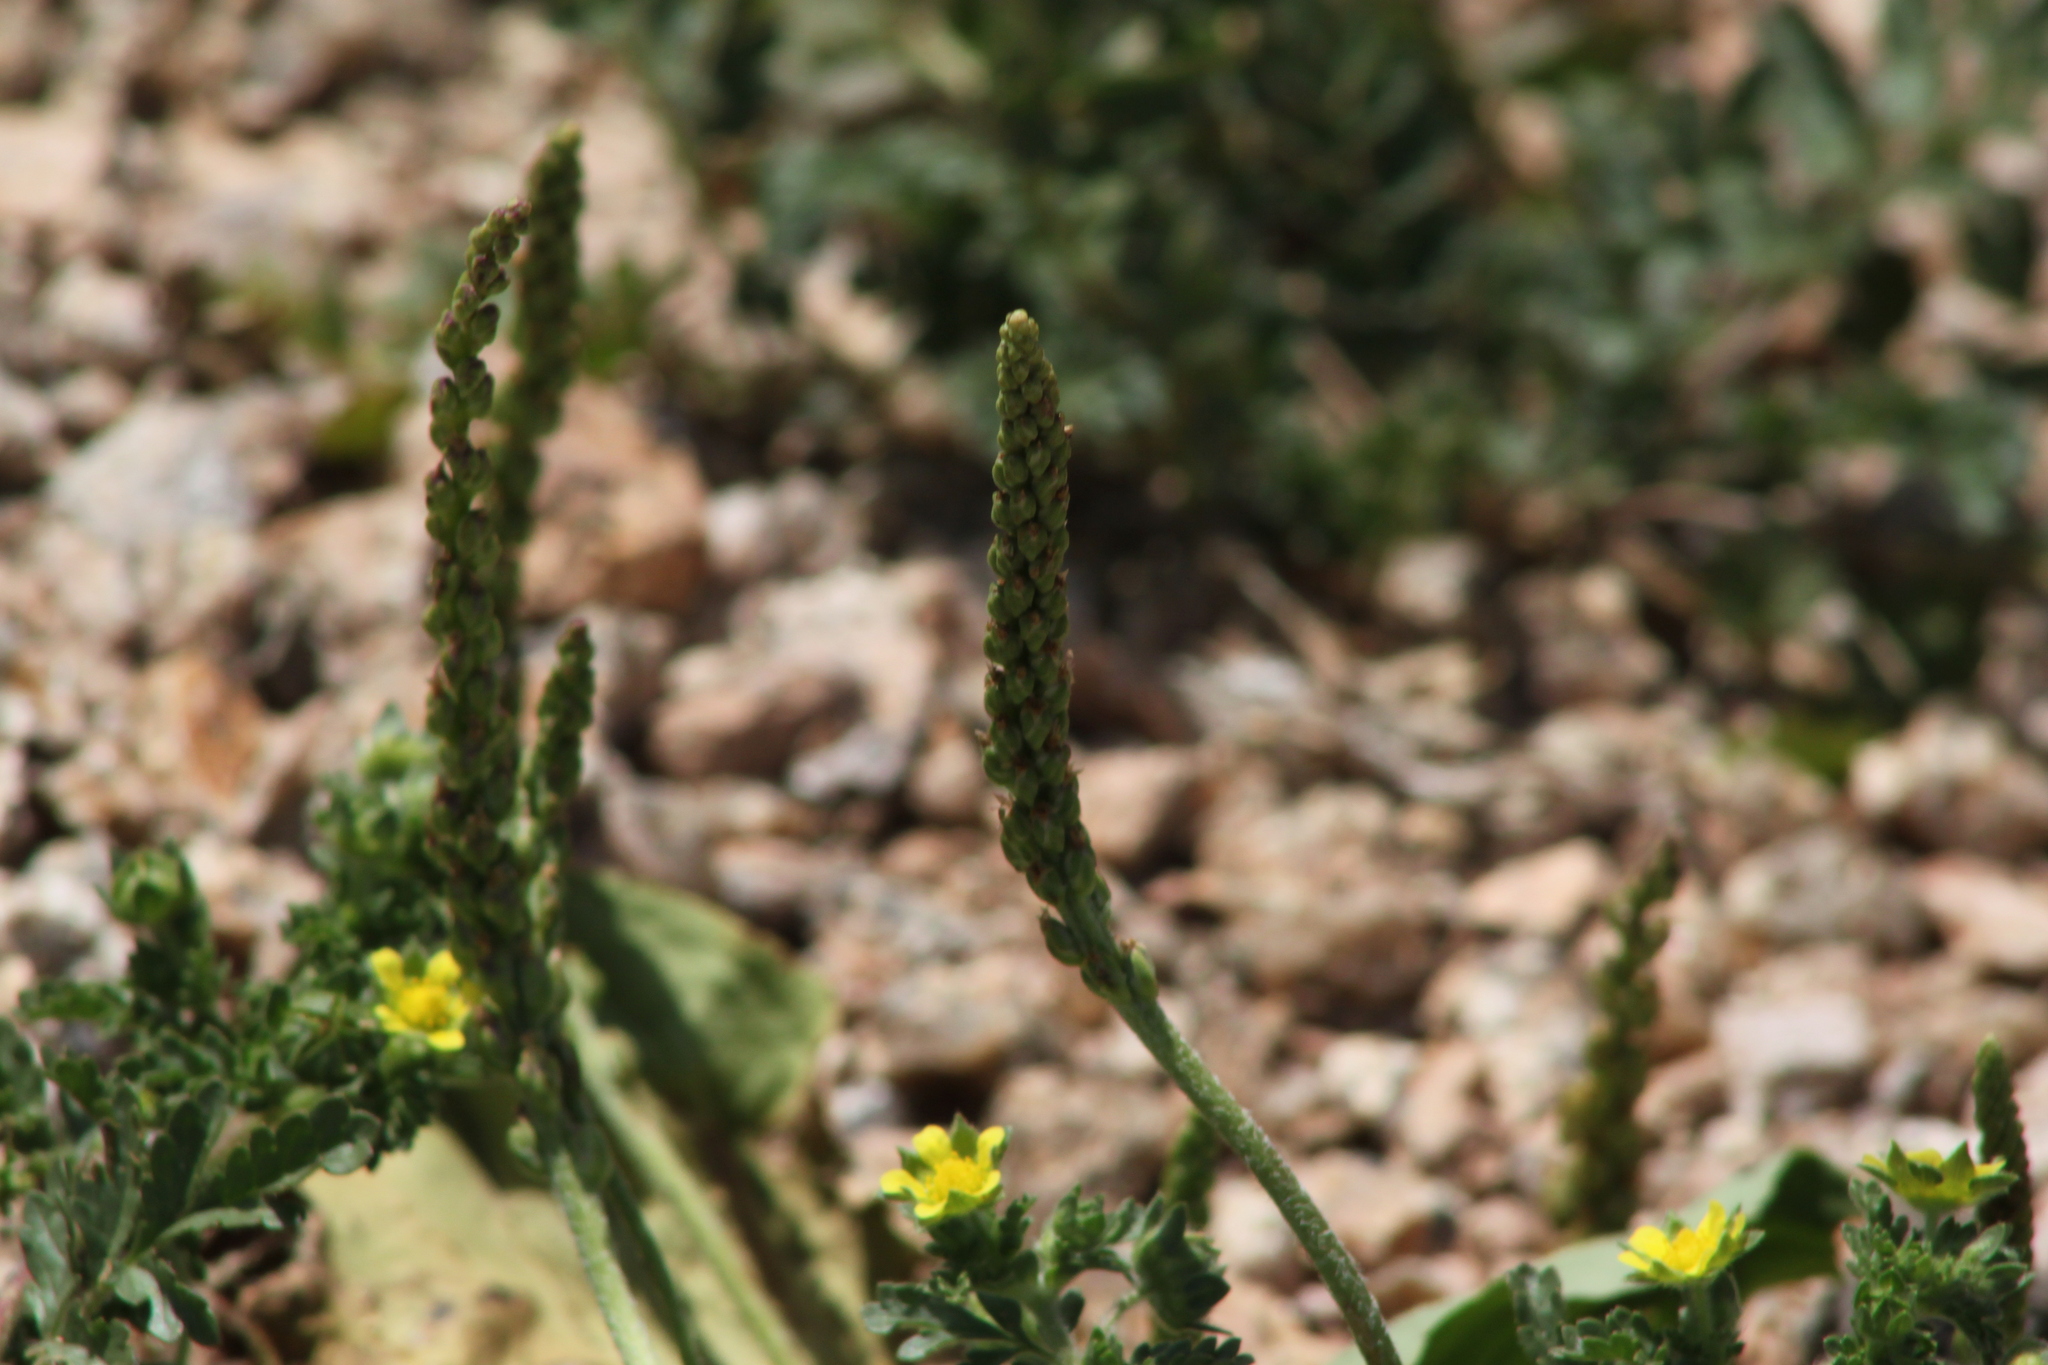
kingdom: Plantae
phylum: Tracheophyta
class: Magnoliopsida
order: Lamiales
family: Plantaginaceae
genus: Plantago
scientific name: Plantago major
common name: Common plantain
